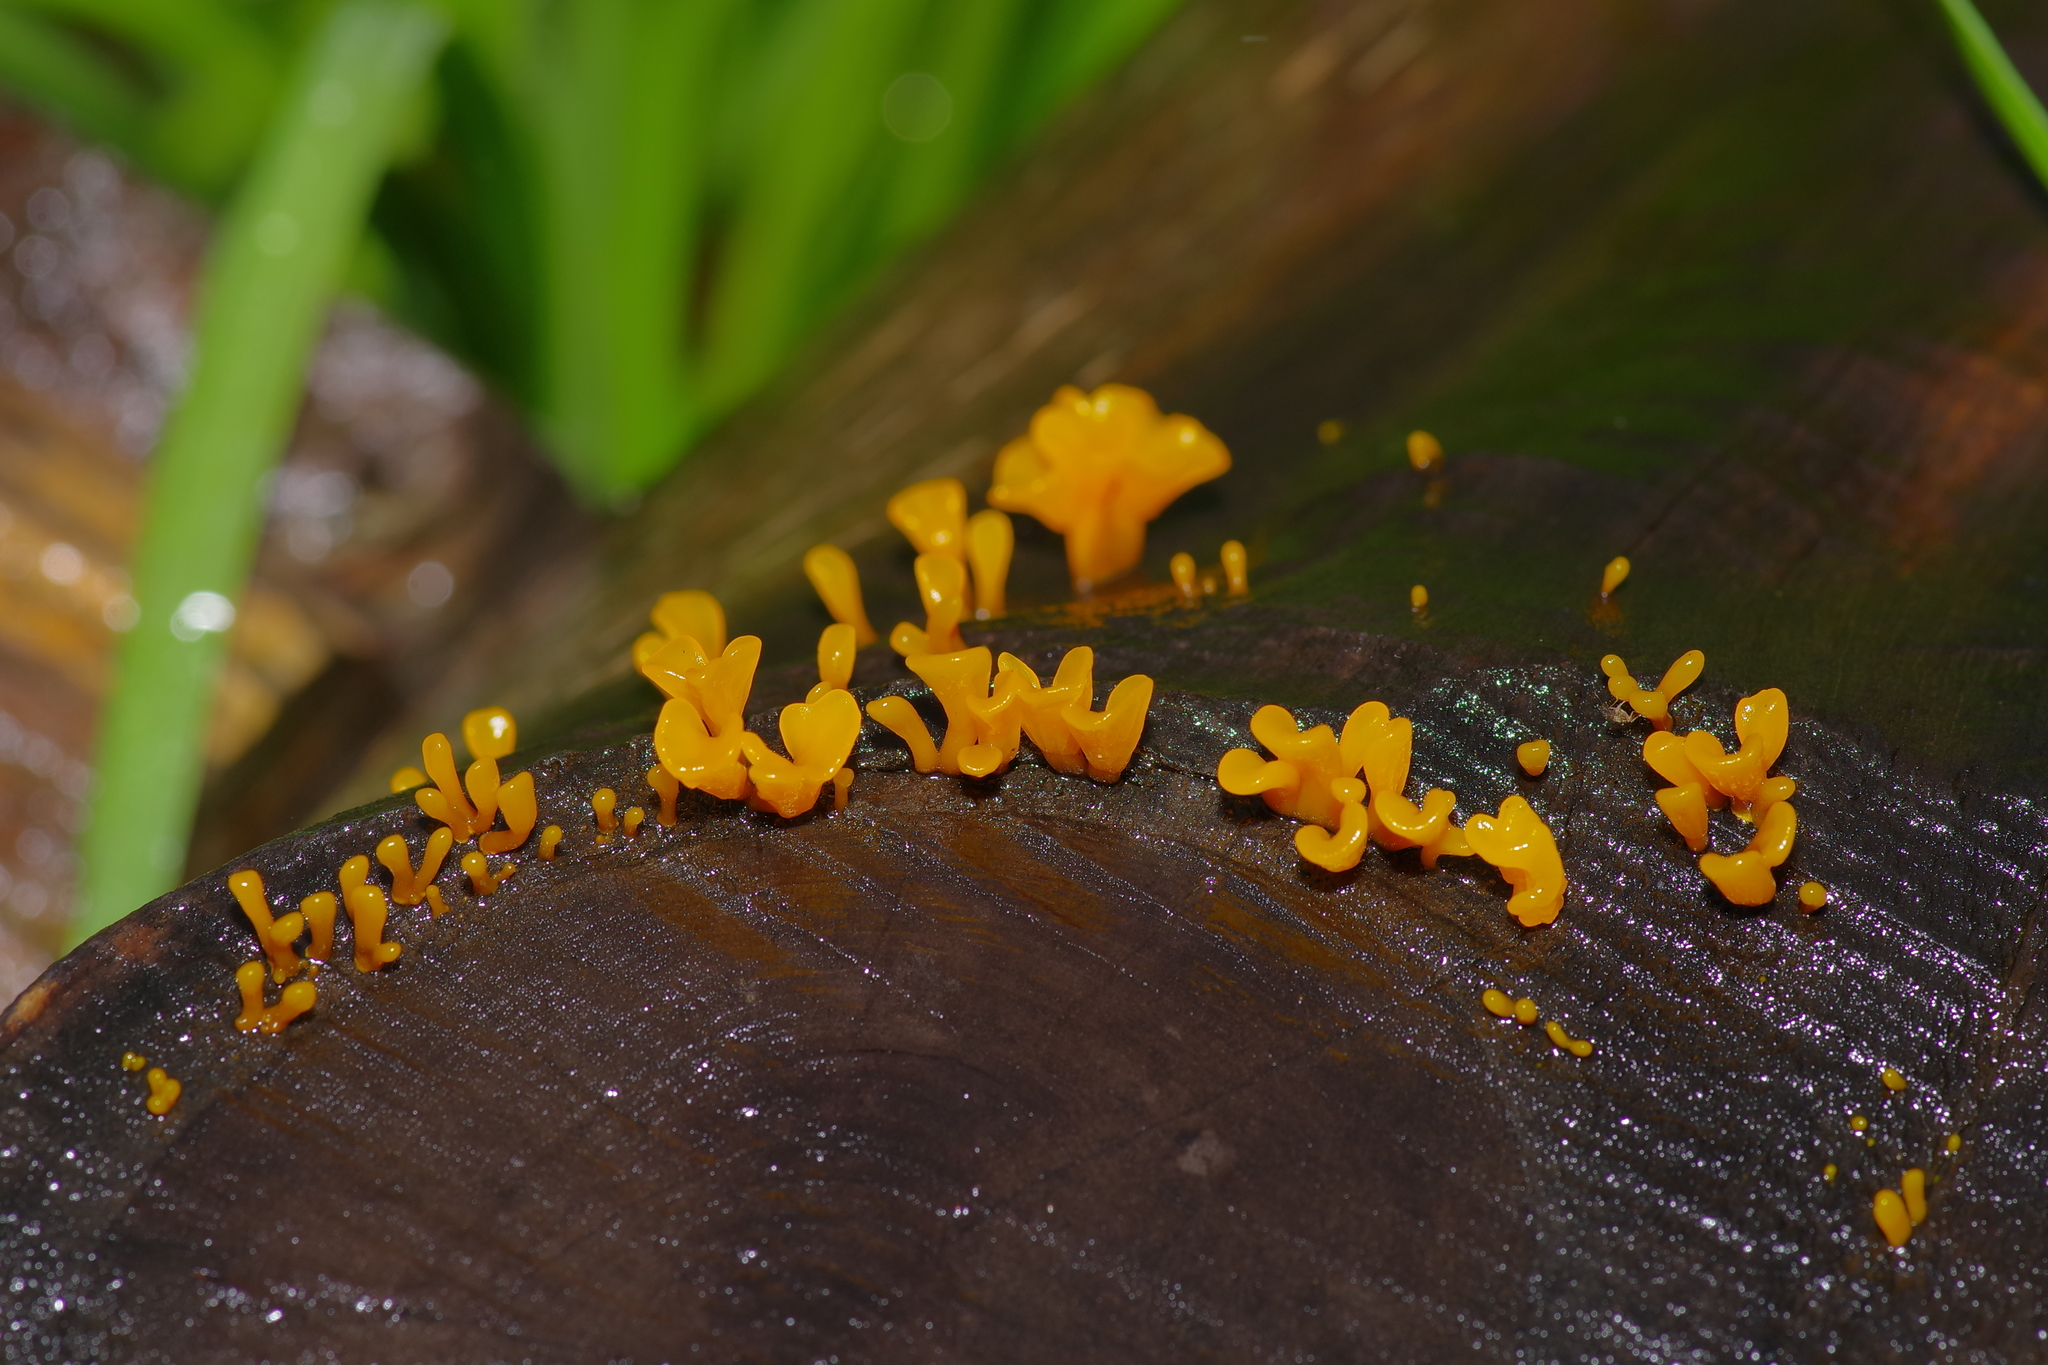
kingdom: Fungi
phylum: Basidiomycota
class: Dacrymycetes
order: Dacrymycetales
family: Dacrymycetaceae
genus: Dacrymyces
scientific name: Dacrymyces spathularius
